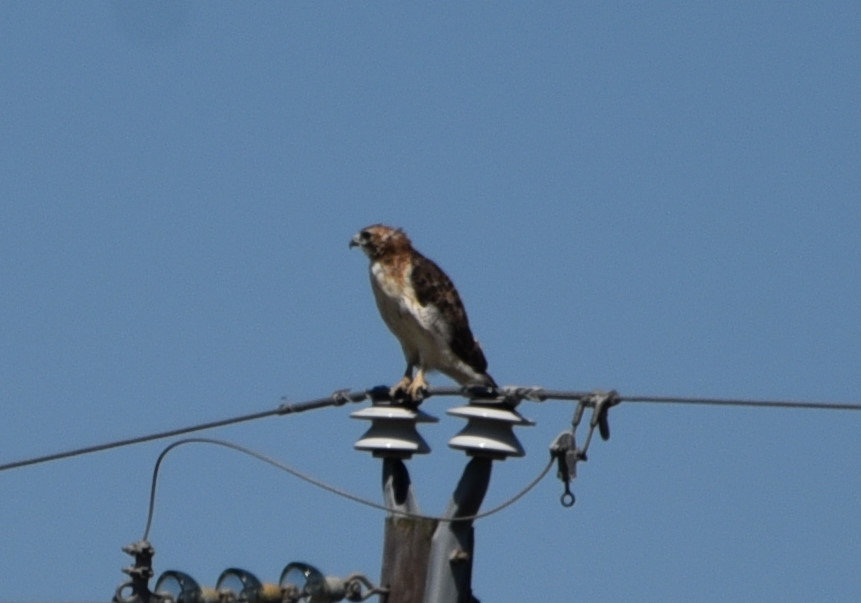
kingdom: Animalia
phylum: Chordata
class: Aves
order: Accipitriformes
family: Accipitridae
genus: Buteo
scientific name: Buteo jamaicensis
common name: Red-tailed hawk
